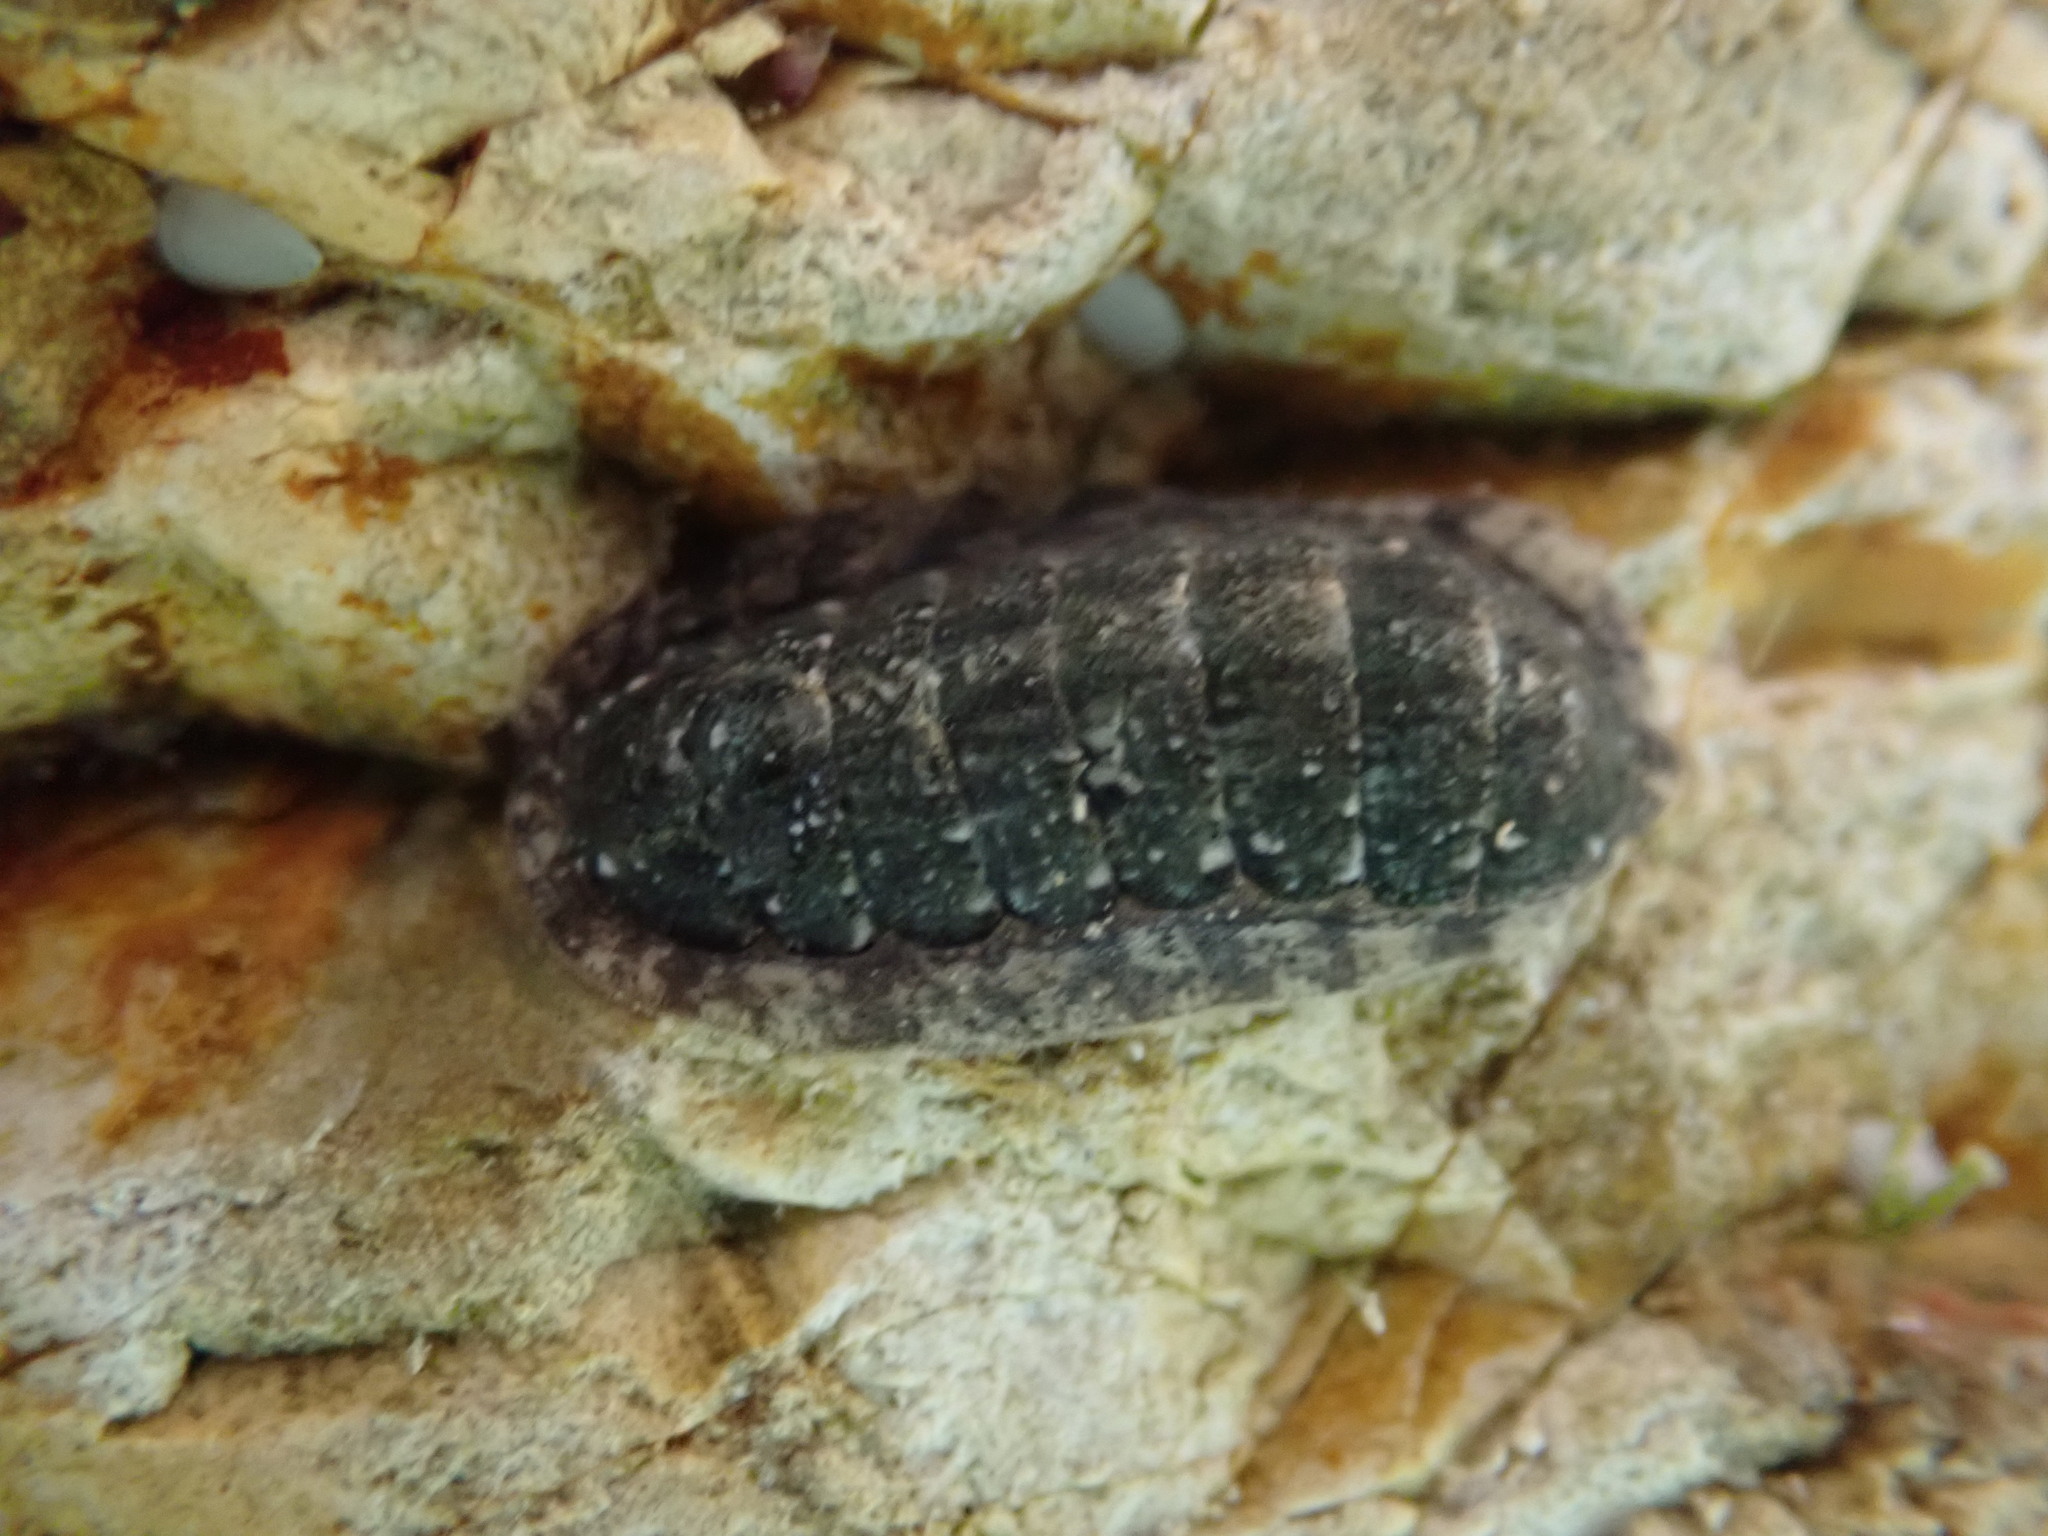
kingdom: Animalia
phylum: Mollusca
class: Polyplacophora
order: Chitonida
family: Ischnochitonidae
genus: Ischnochiton
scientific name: Ischnochiton maorianus
